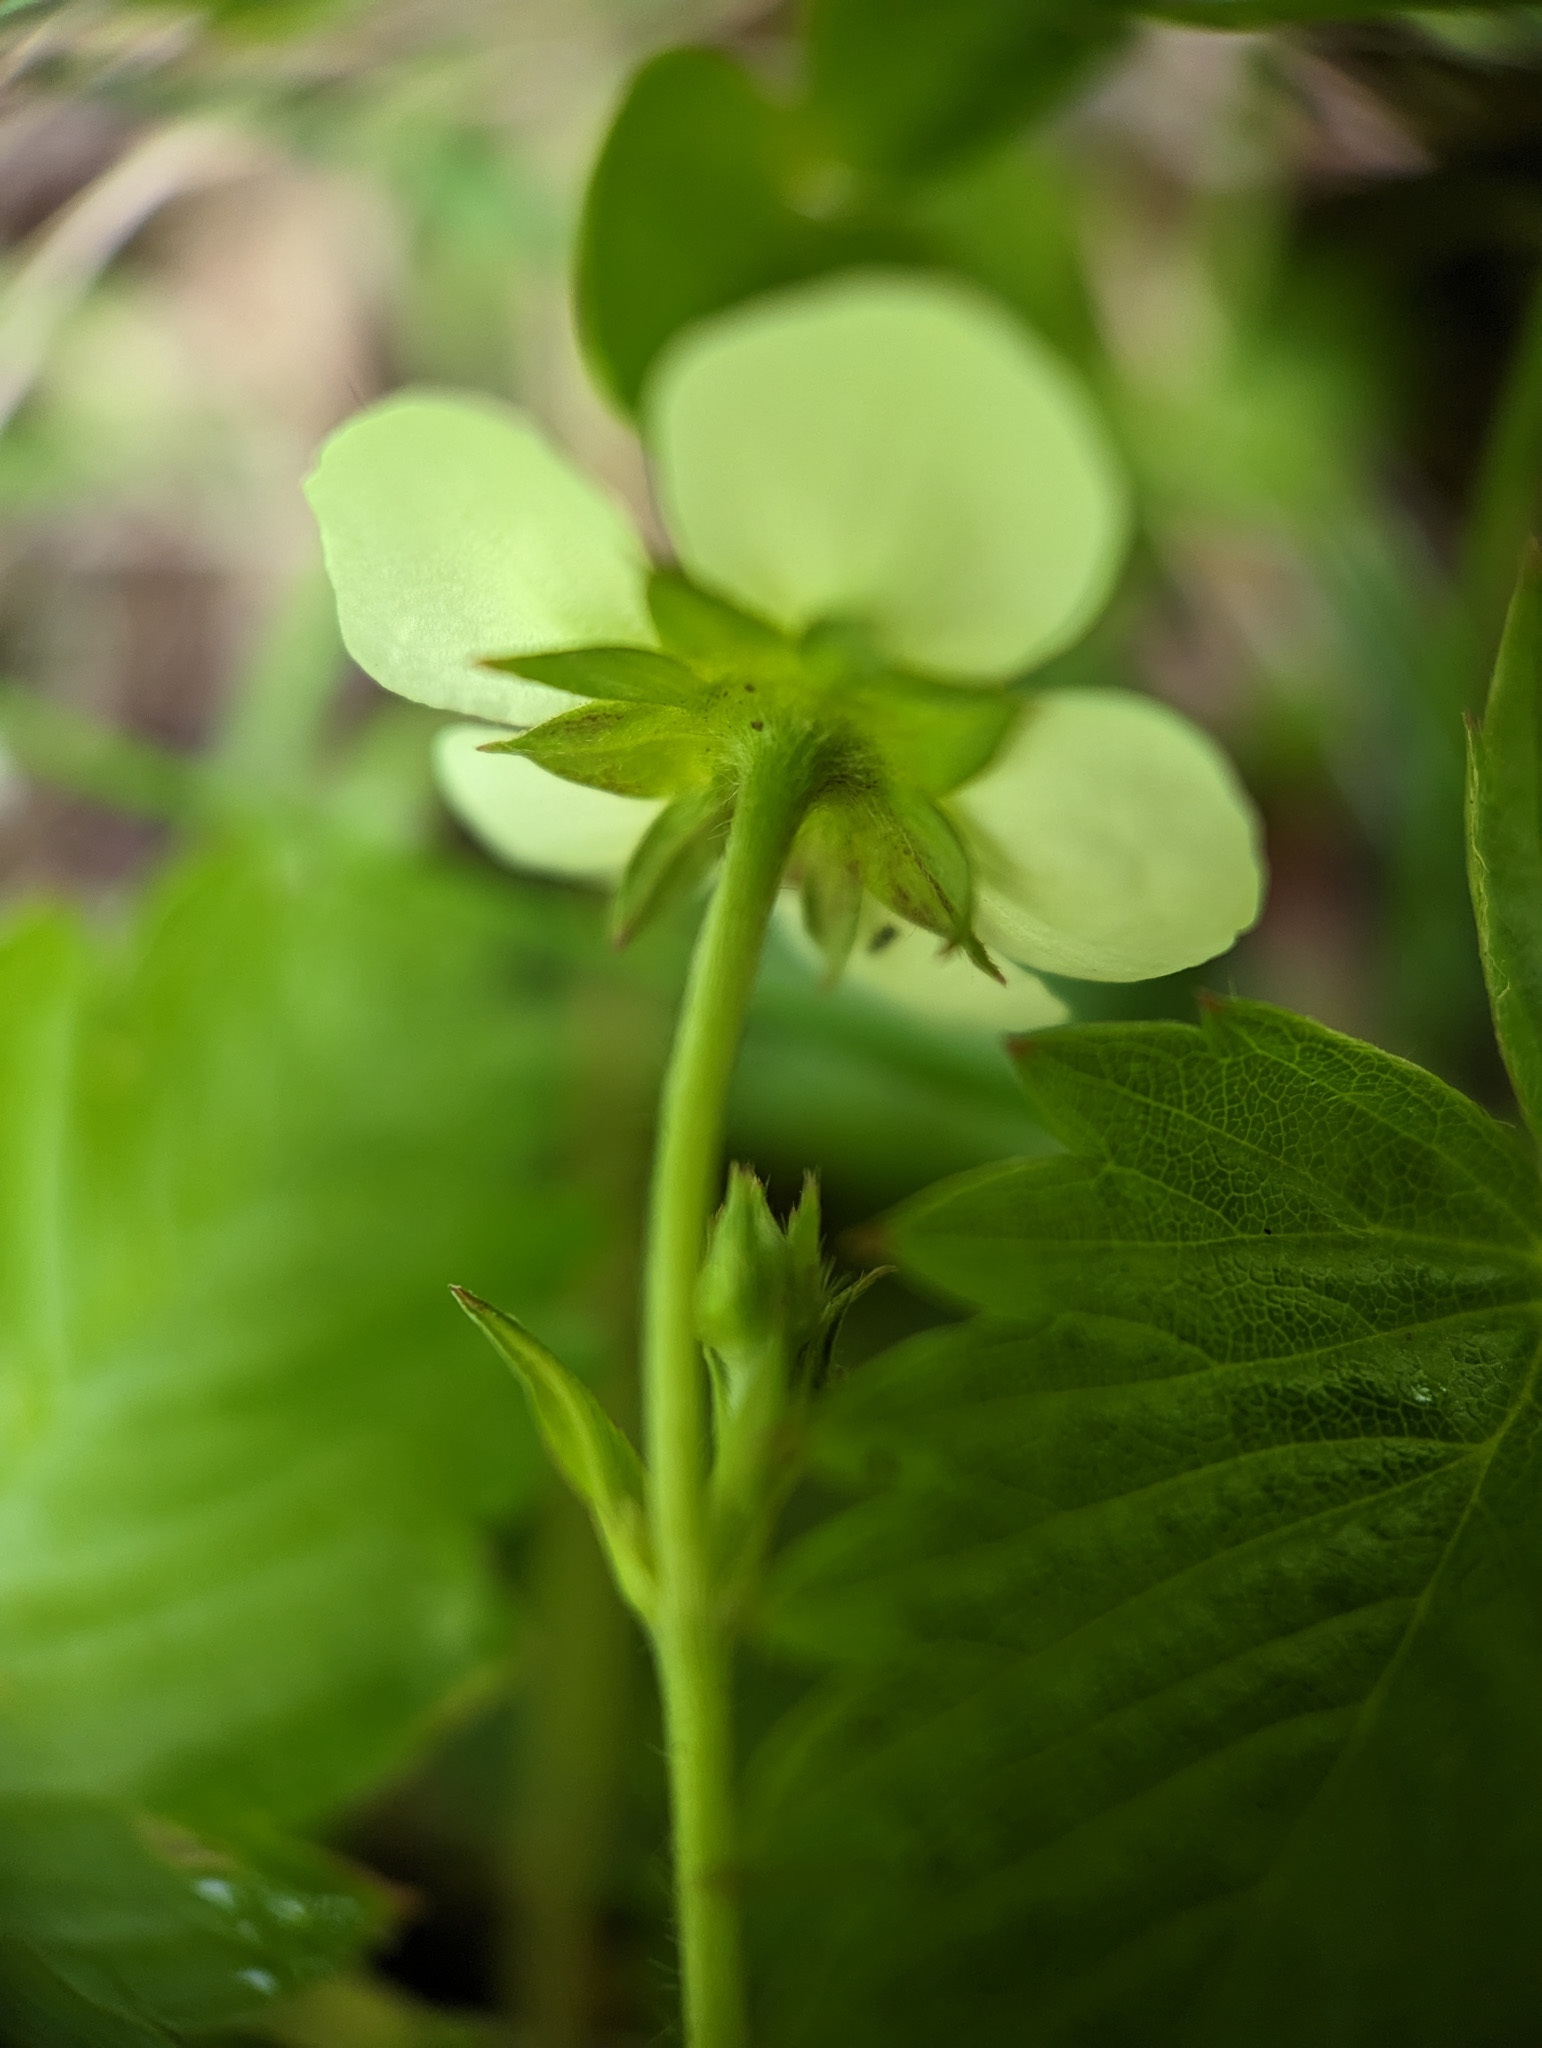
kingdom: Plantae
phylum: Tracheophyta
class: Magnoliopsida
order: Rosales
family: Rosaceae
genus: Fragaria
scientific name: Fragaria vesca
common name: Wild strawberry
